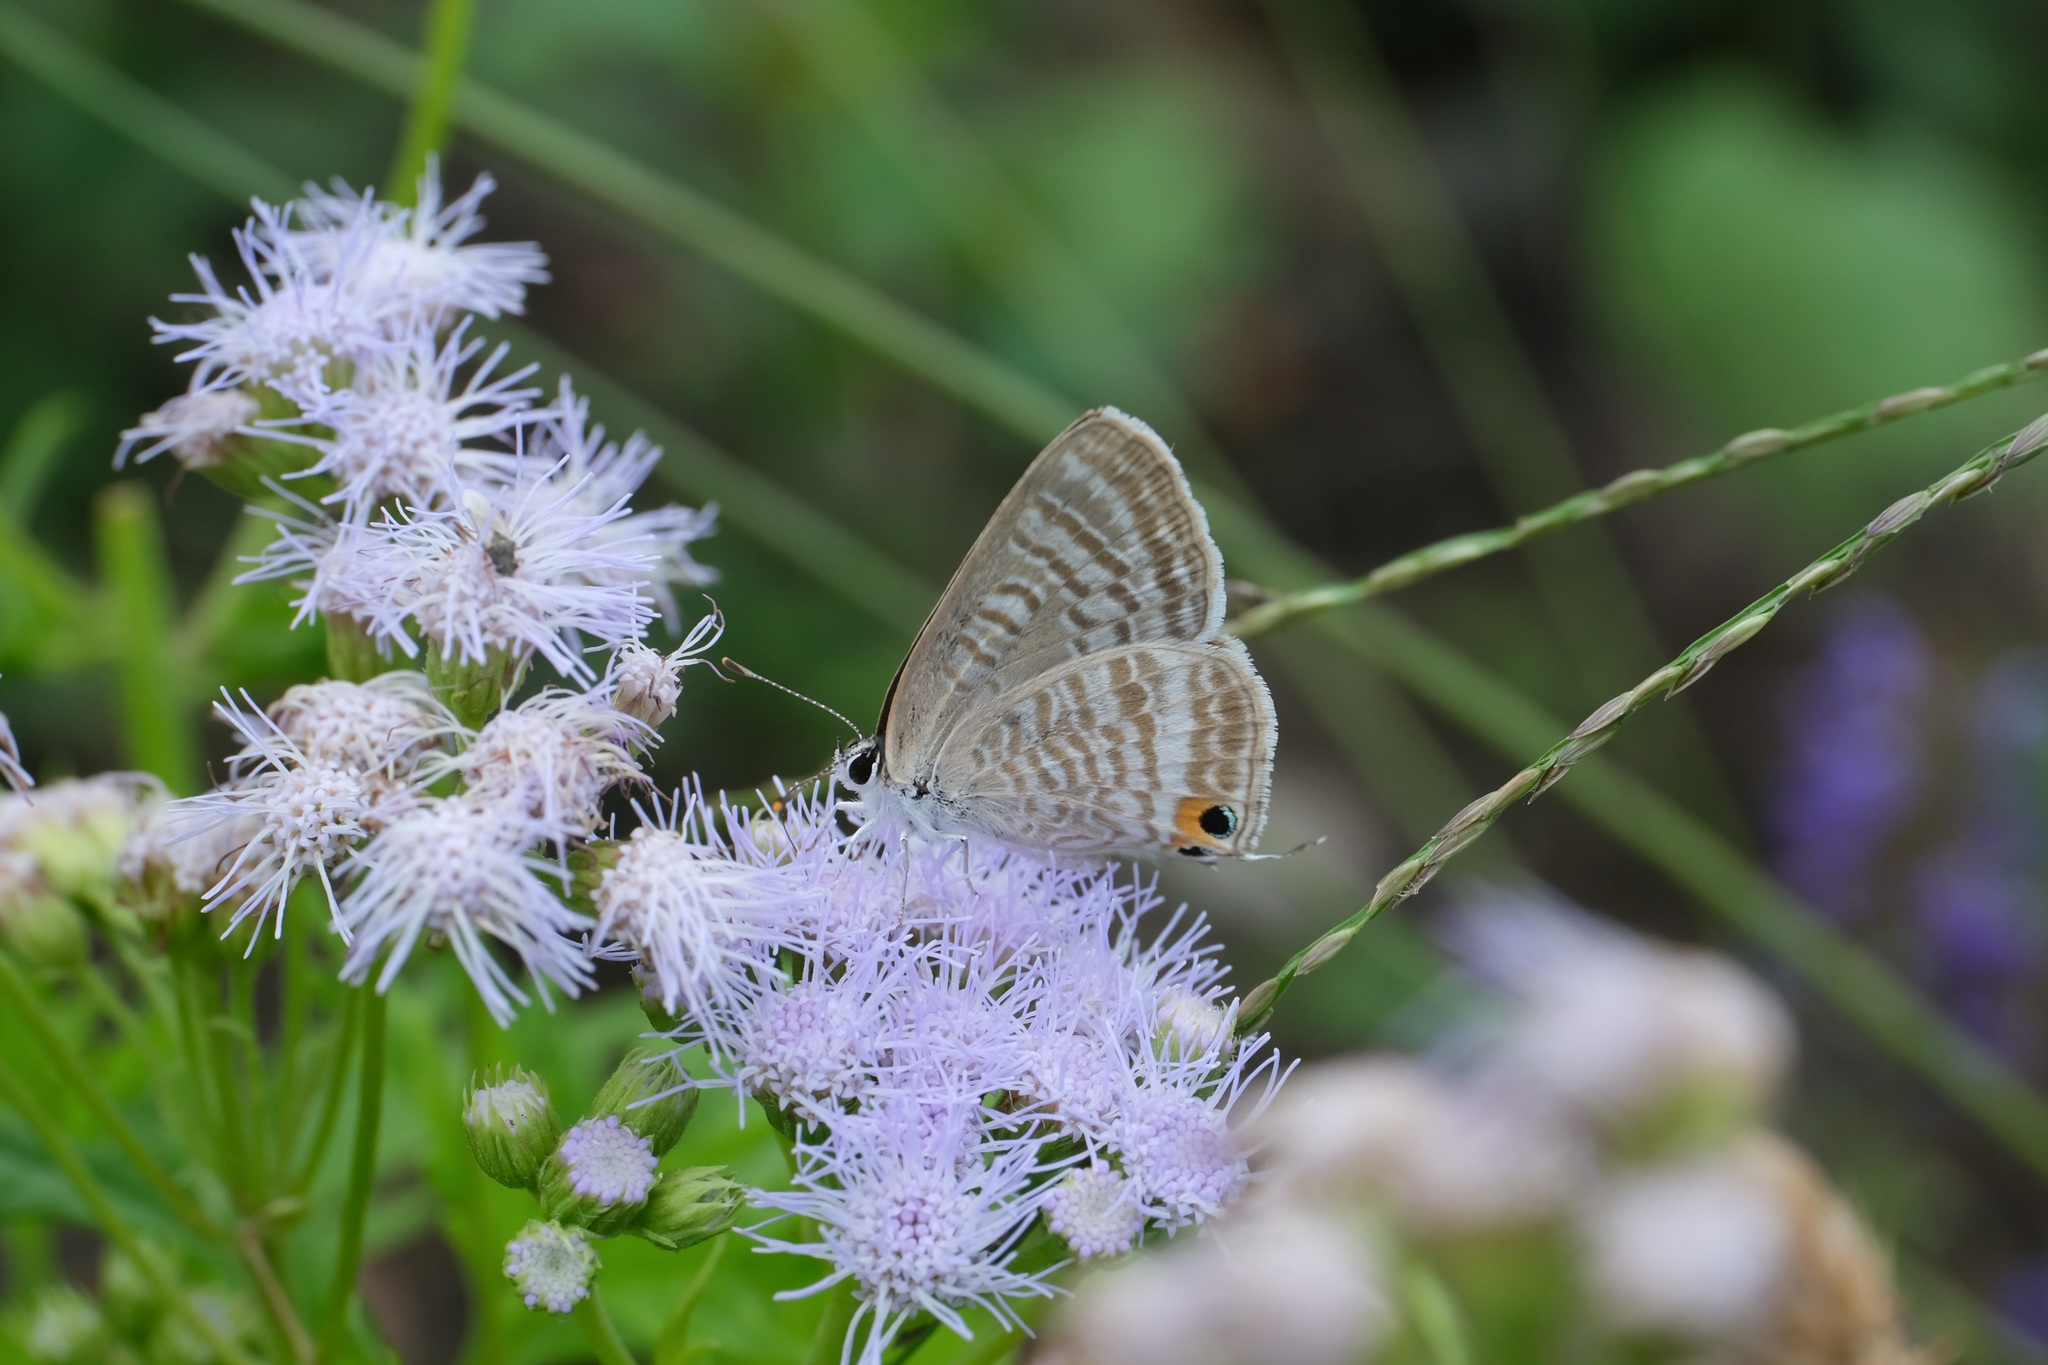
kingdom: Animalia
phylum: Arthropoda
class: Insecta
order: Lepidoptera
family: Lycaenidae
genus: Lampides
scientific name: Lampides boeticus
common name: Long-tailed blue
